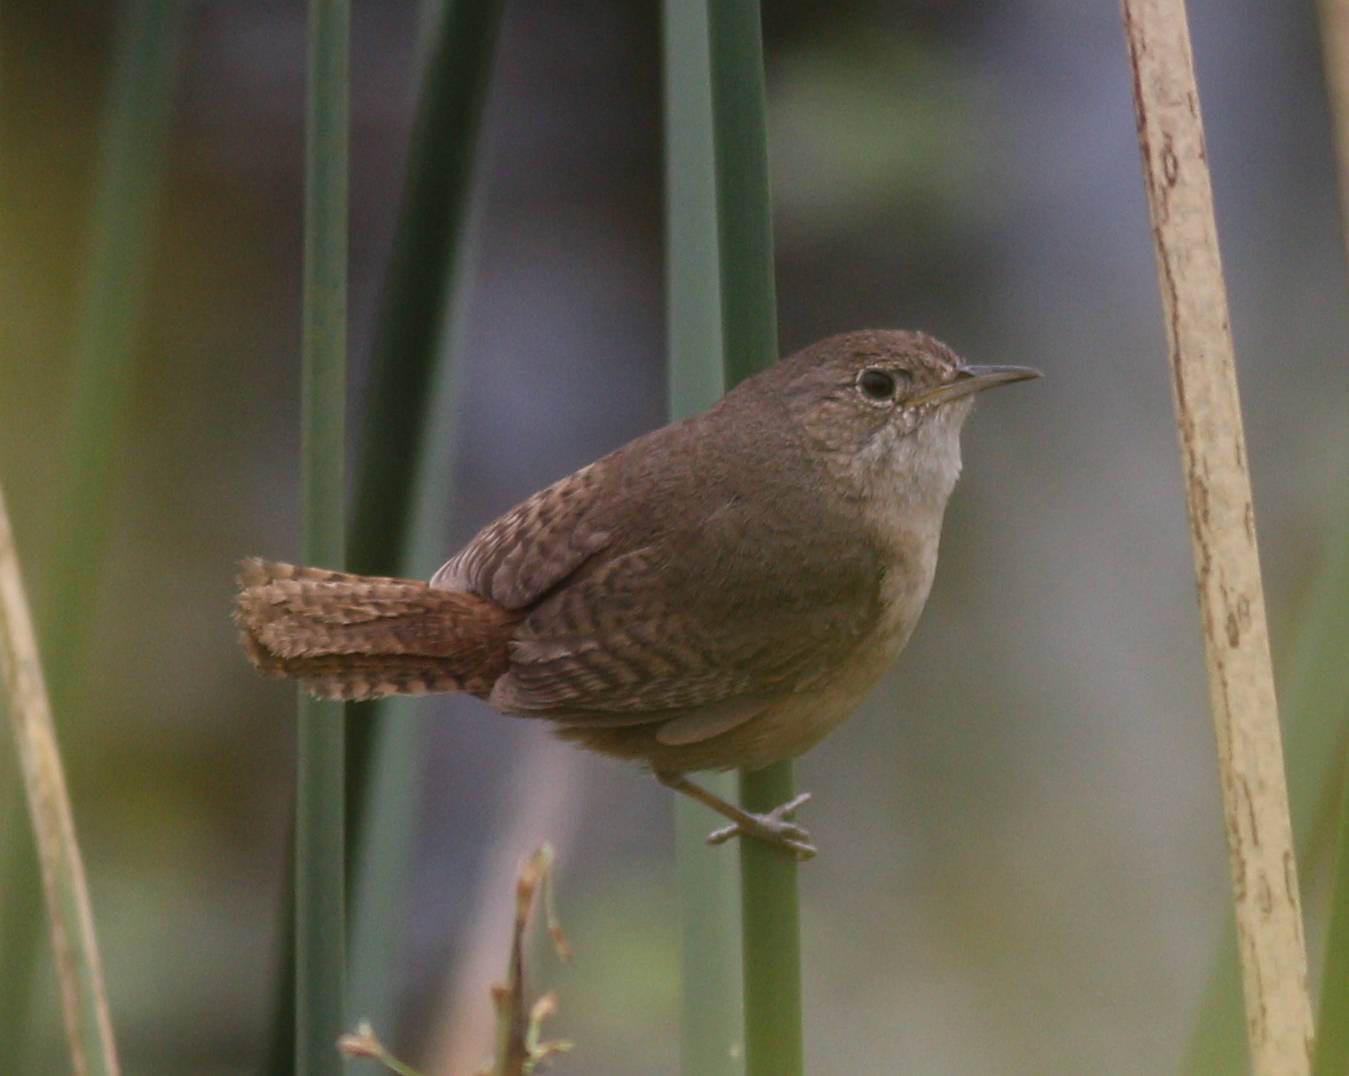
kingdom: Animalia
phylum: Chordata
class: Aves
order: Passeriformes
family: Troglodytidae
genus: Troglodytes
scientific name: Troglodytes aedon
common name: House wren
